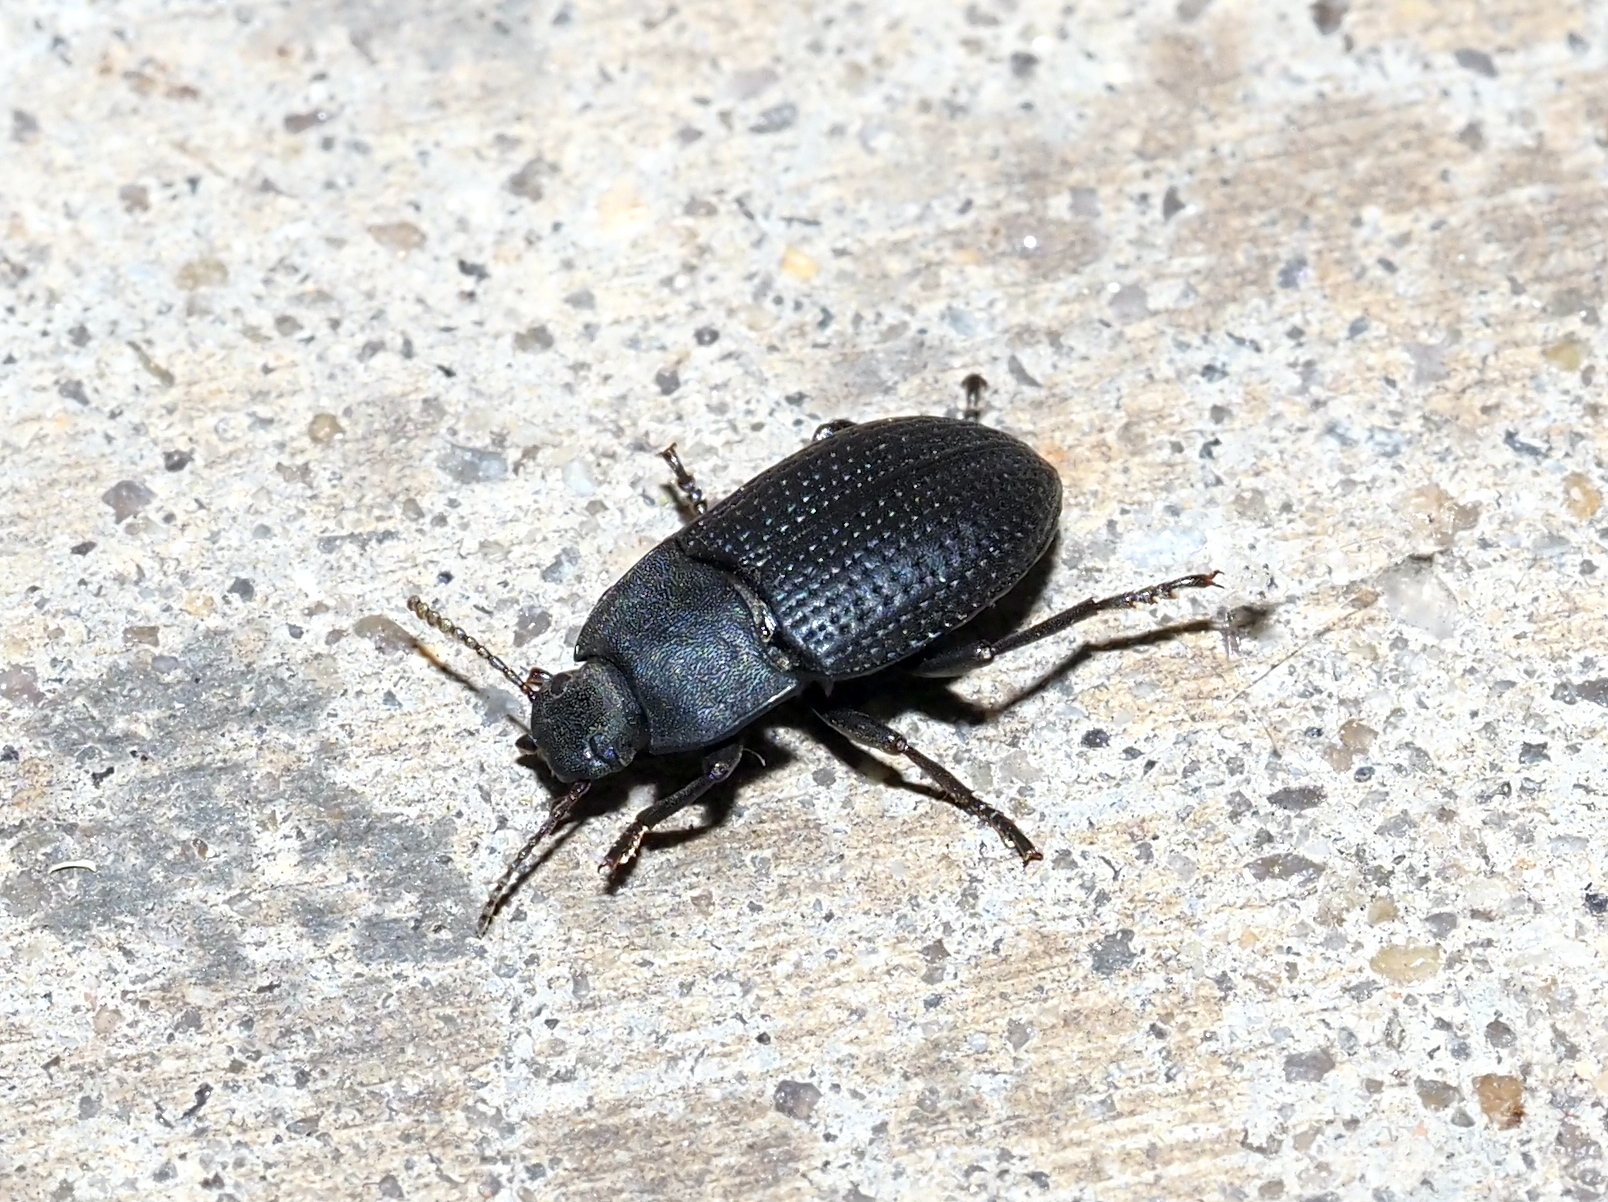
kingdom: Animalia
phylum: Arthropoda
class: Insecta
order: Coleoptera
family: Tenebrionidae
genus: Asiopus
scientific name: Asiopus
